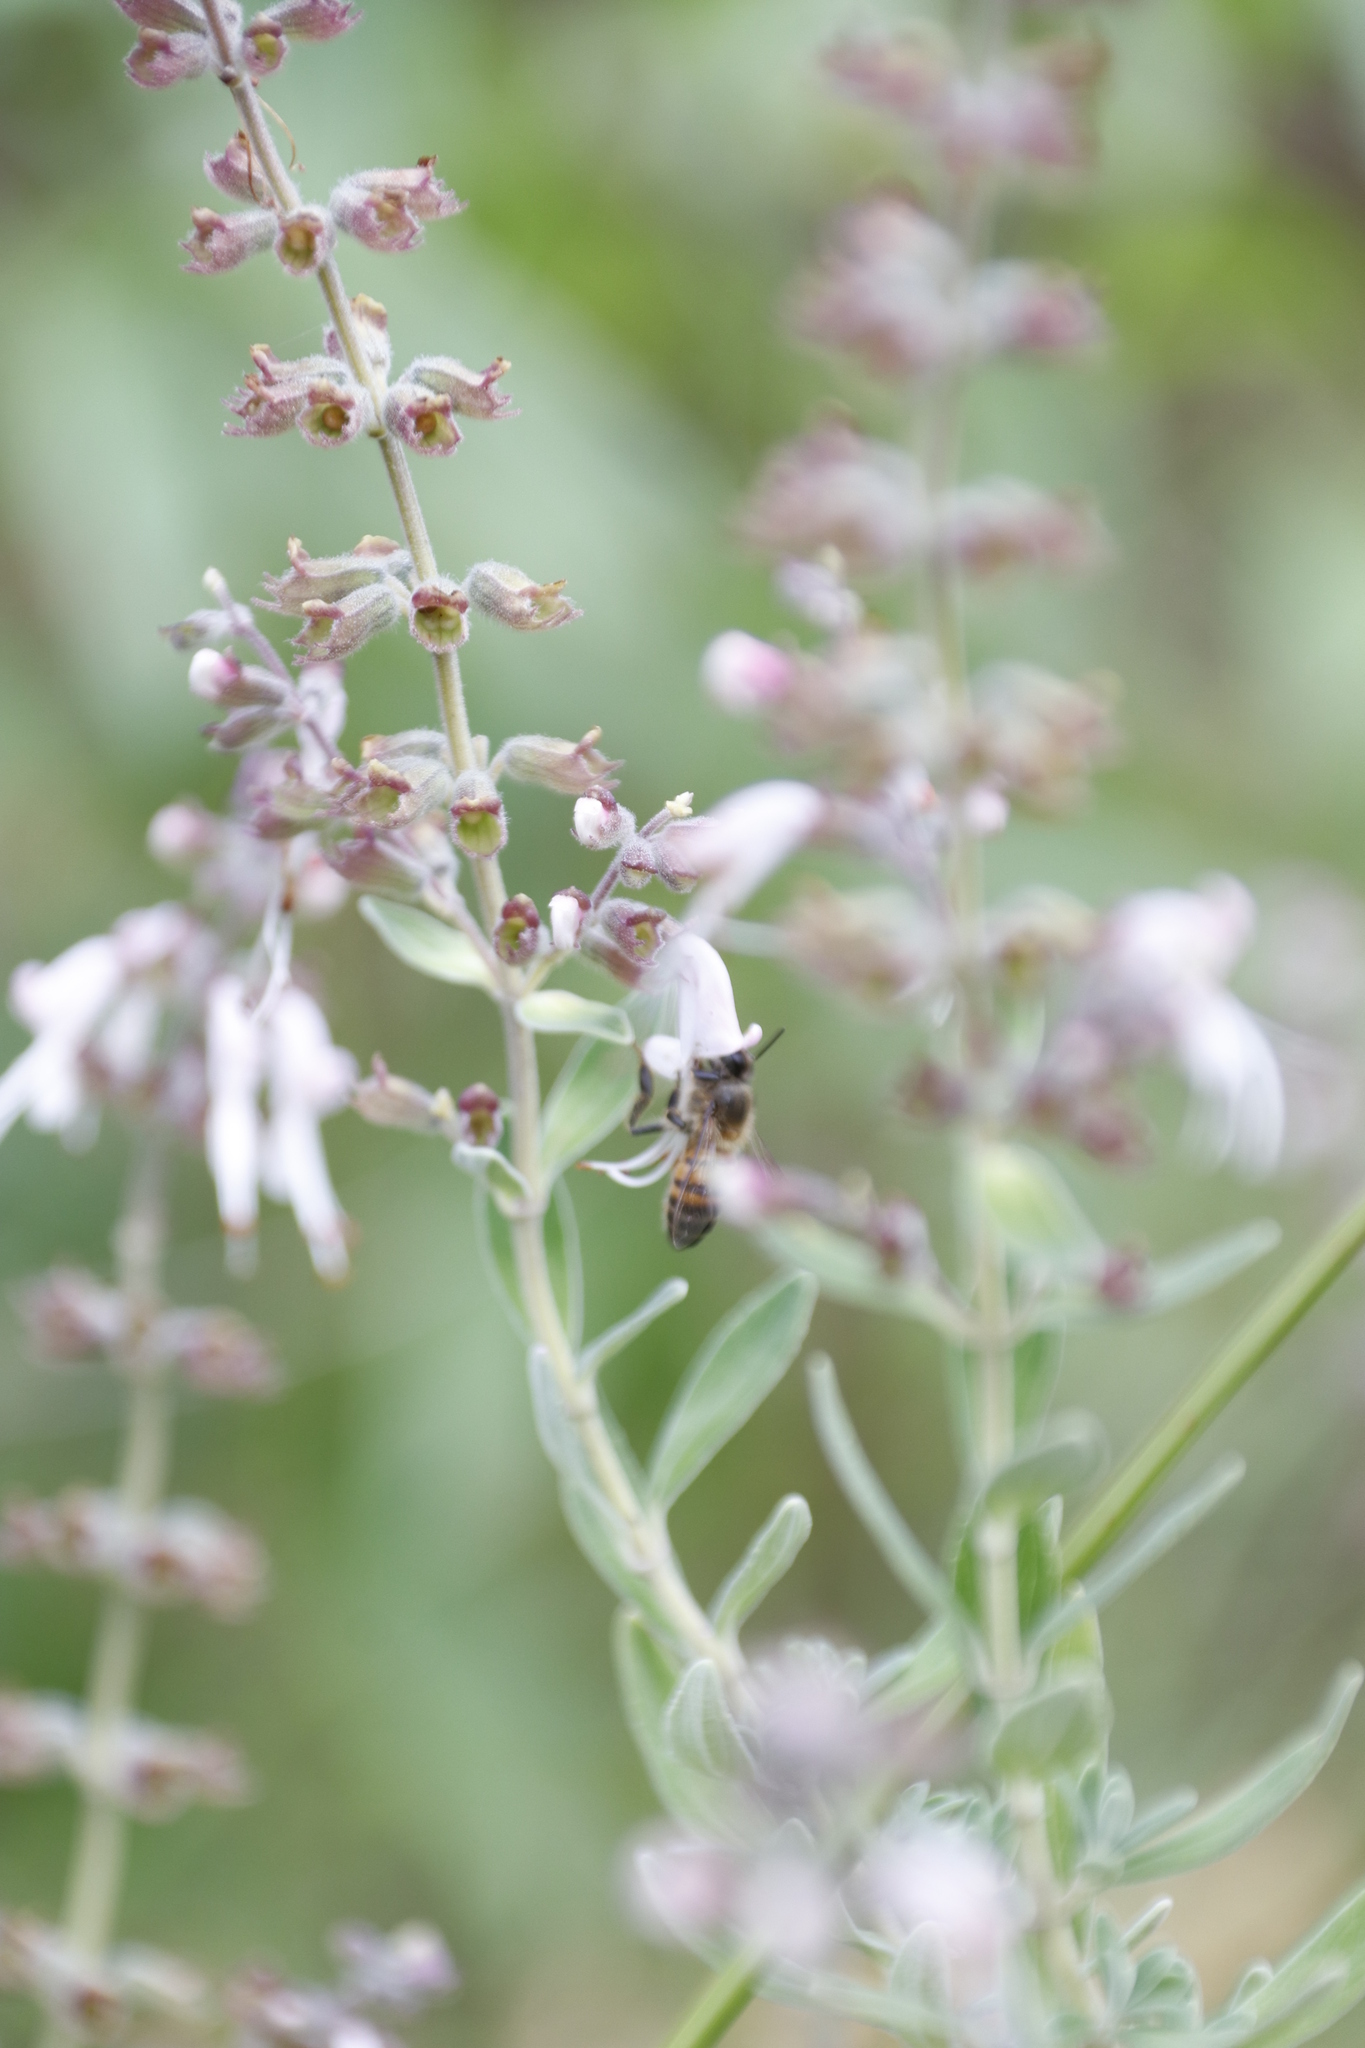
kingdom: Animalia
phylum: Arthropoda
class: Insecta
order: Hymenoptera
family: Apidae
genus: Apis
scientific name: Apis mellifera
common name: Honey bee
